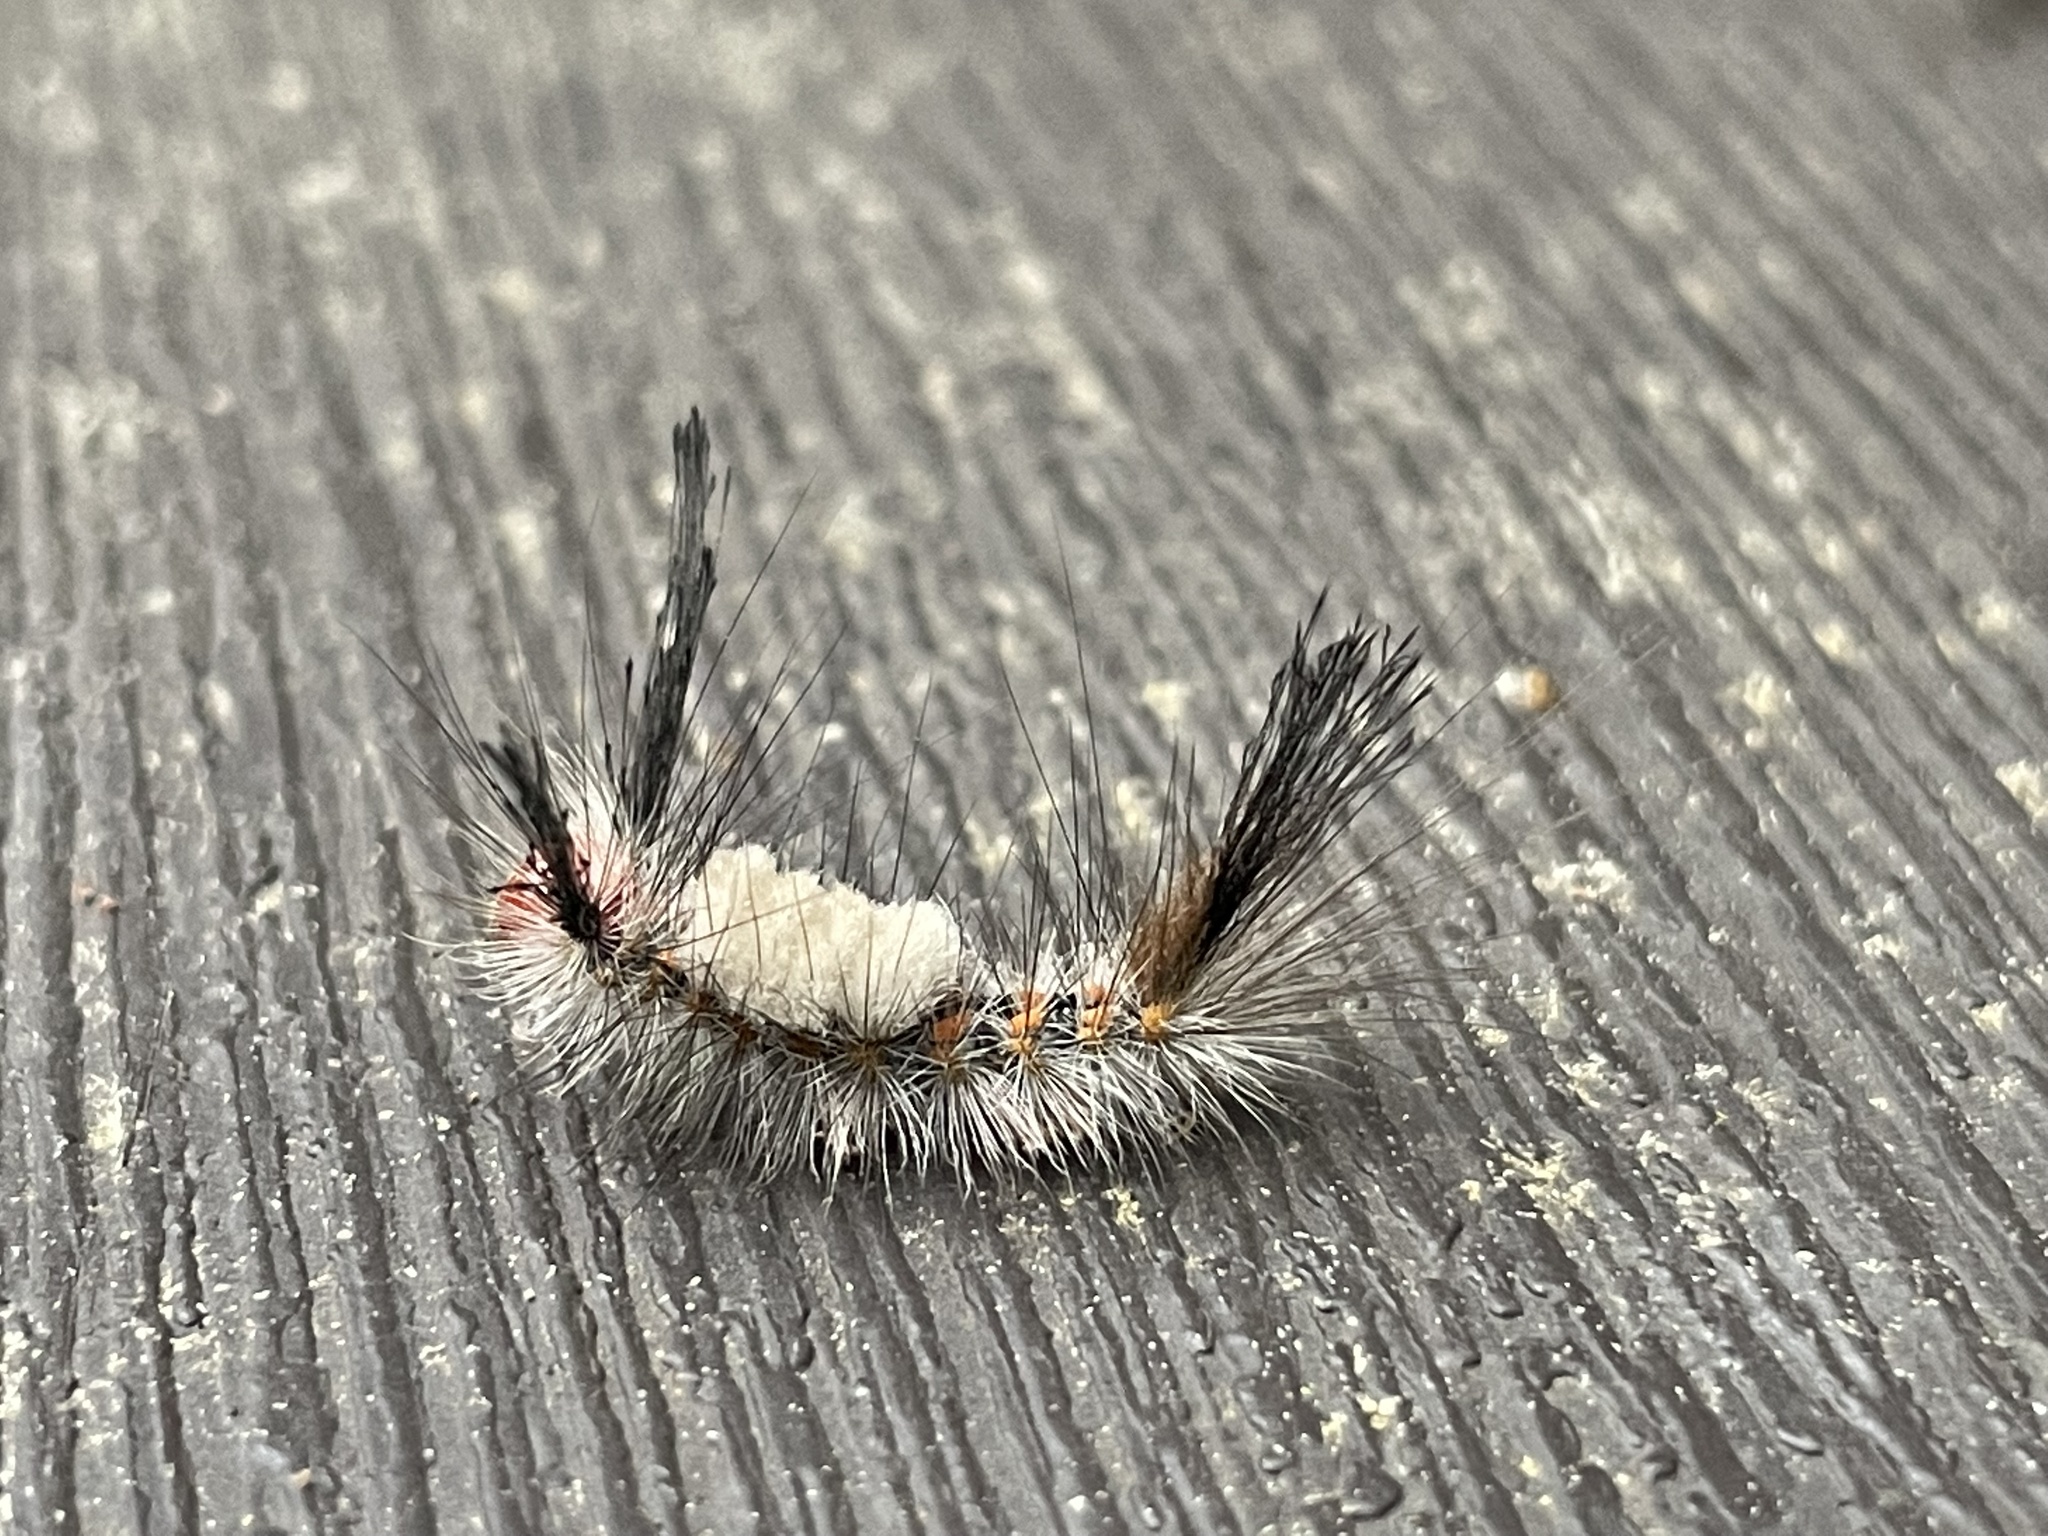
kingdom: Animalia
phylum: Arthropoda
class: Insecta
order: Lepidoptera
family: Erebidae
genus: Orgyia
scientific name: Orgyia detrita
